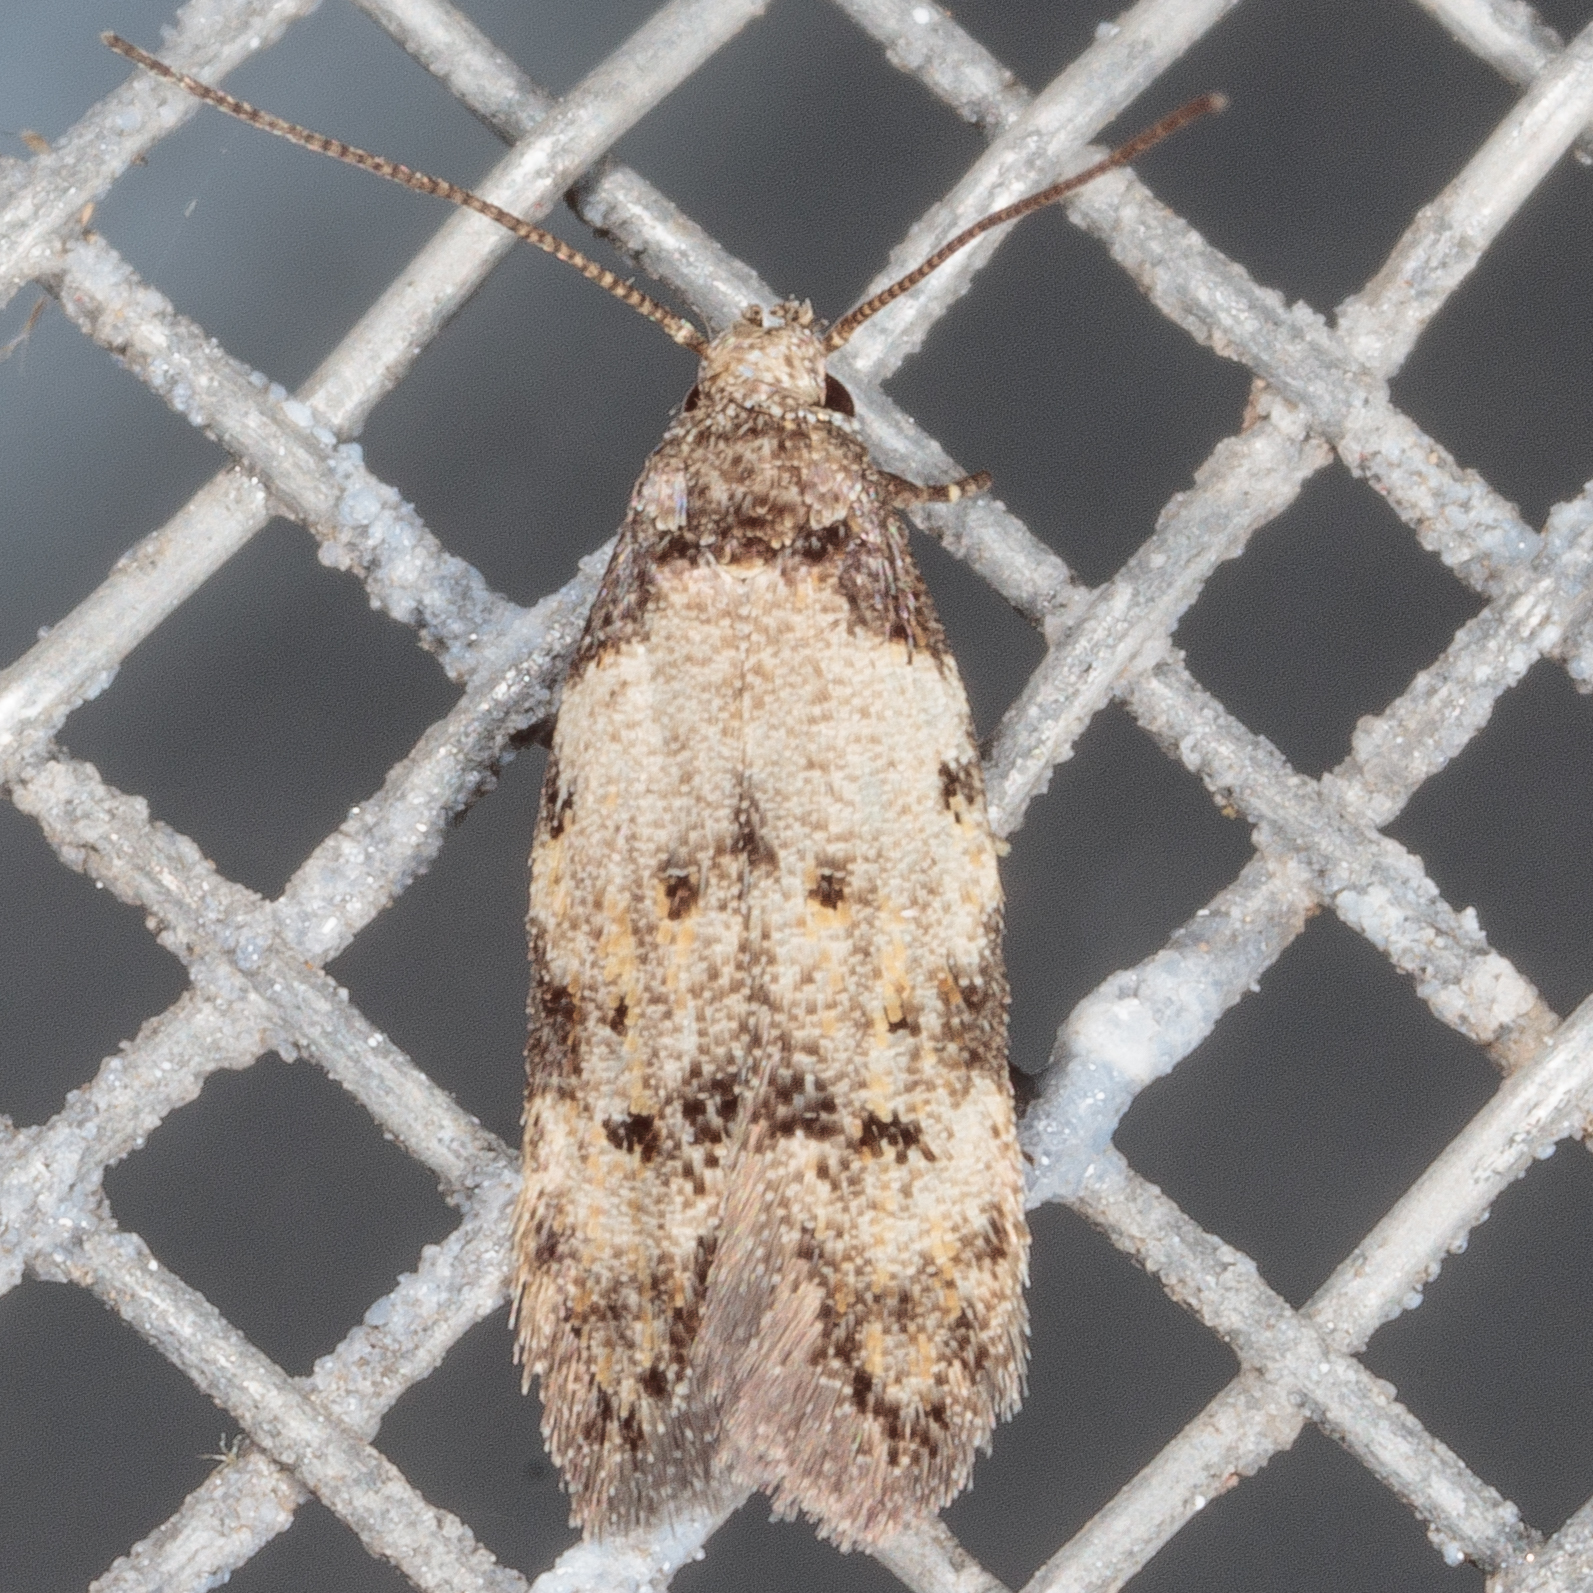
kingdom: Animalia
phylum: Arthropoda
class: Insecta
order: Lepidoptera
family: Autostichidae
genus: Taygete
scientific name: Taygete attributella
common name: Triangle-marked twirler moth
